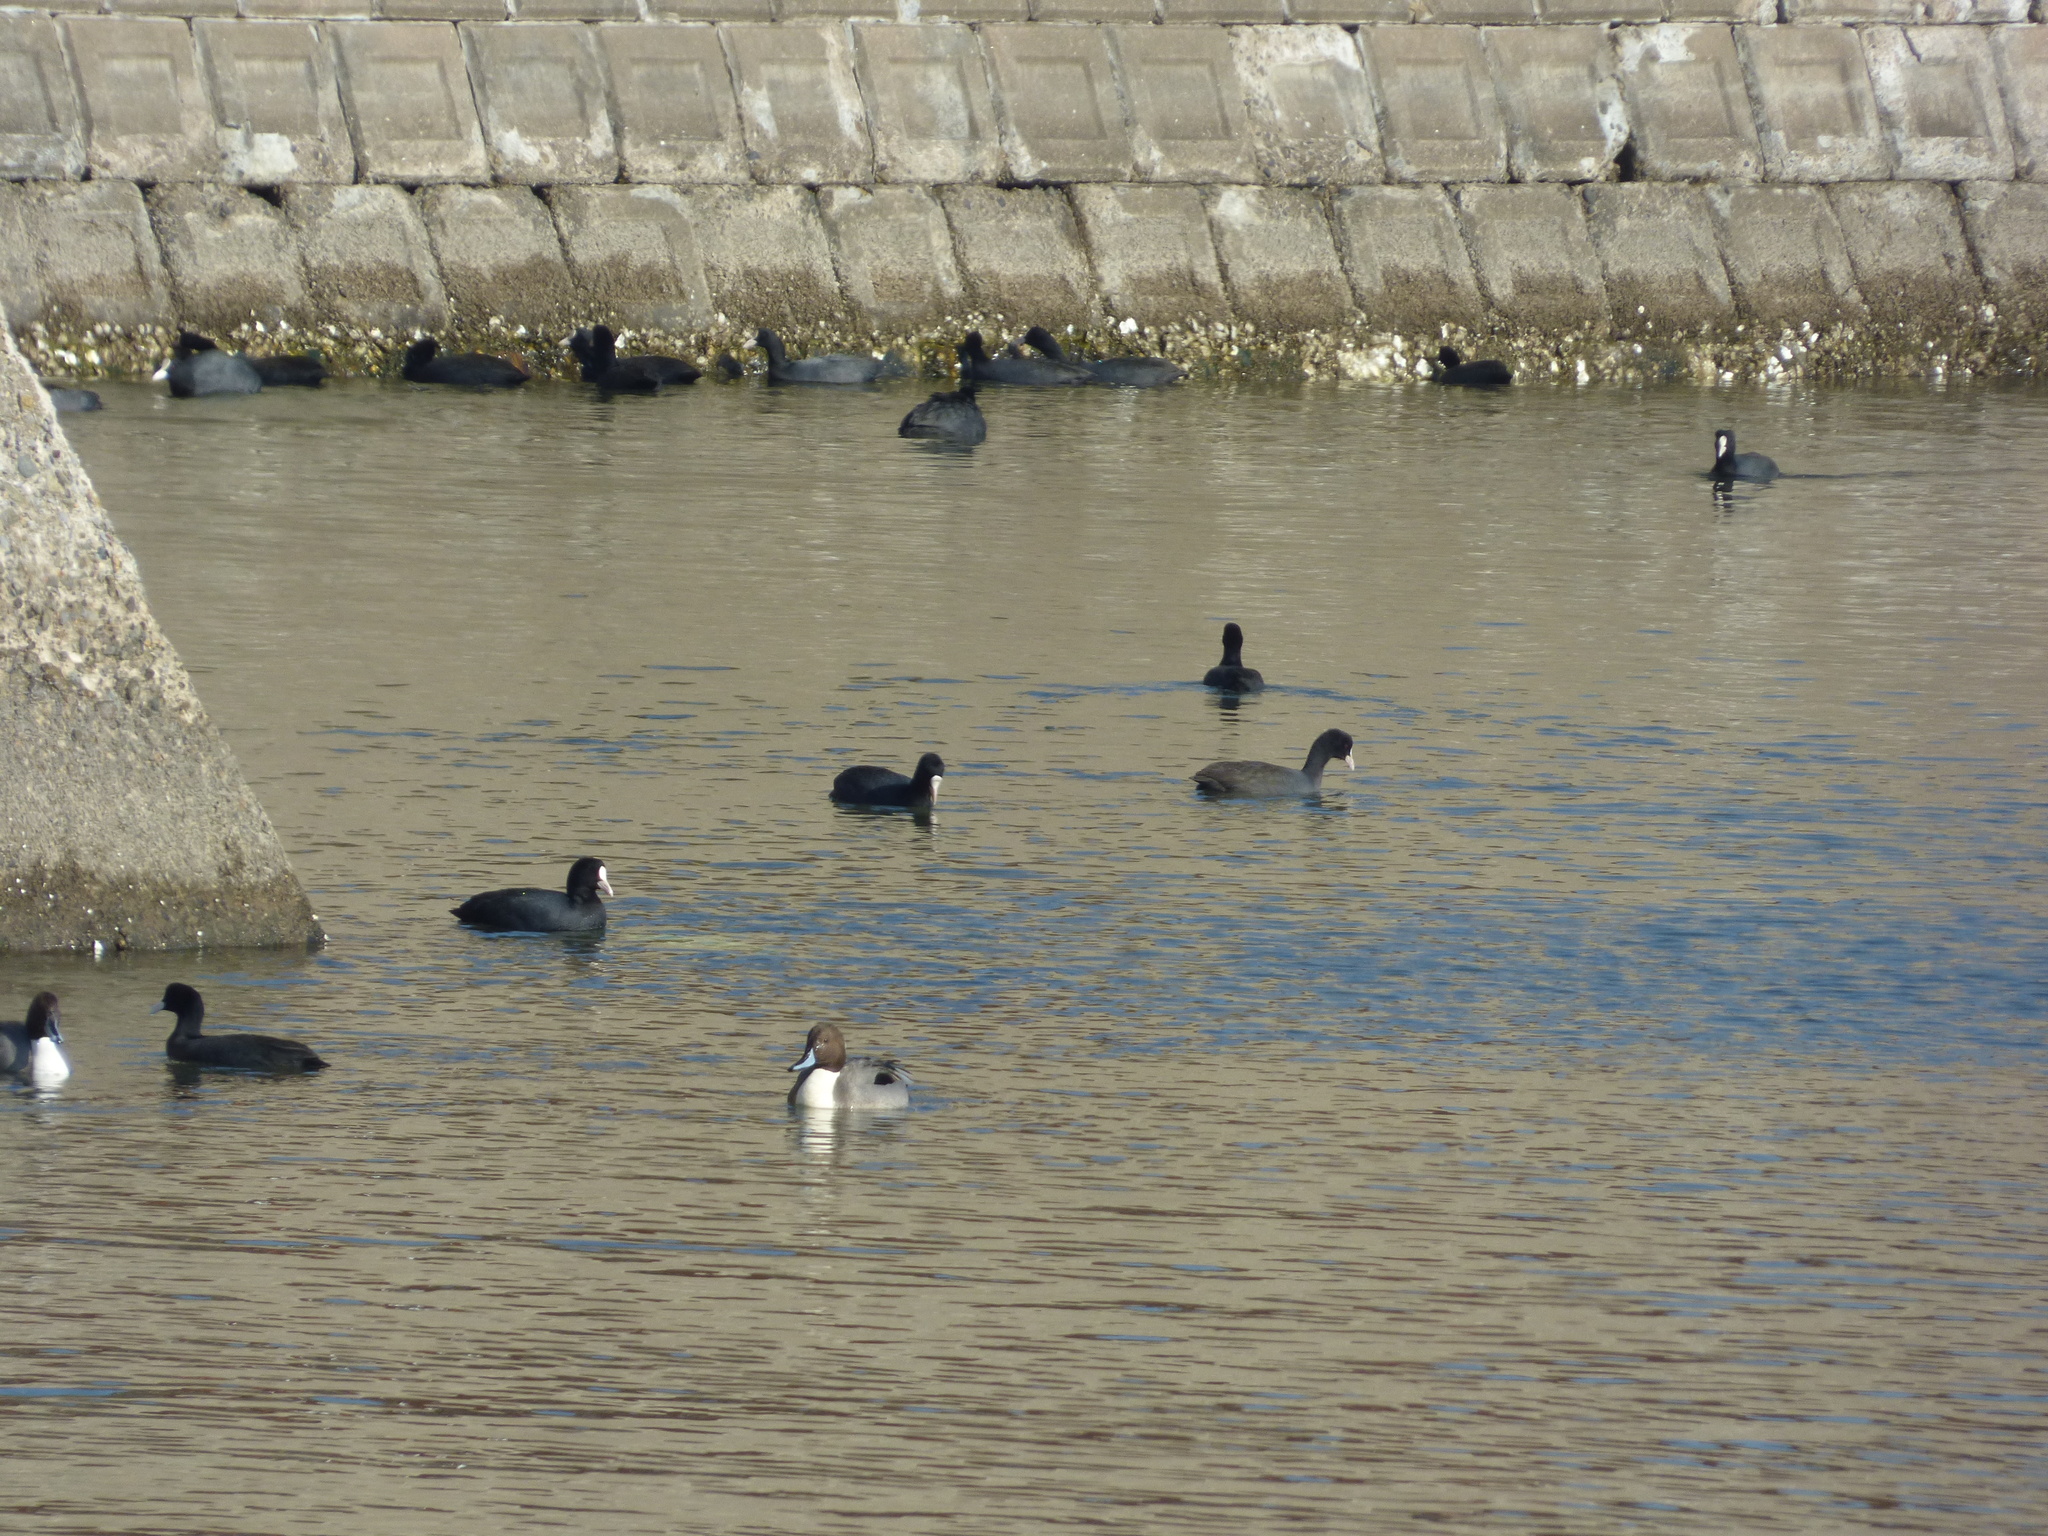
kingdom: Animalia
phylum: Chordata
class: Aves
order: Gruiformes
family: Rallidae
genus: Fulica
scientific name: Fulica atra
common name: Eurasian coot
